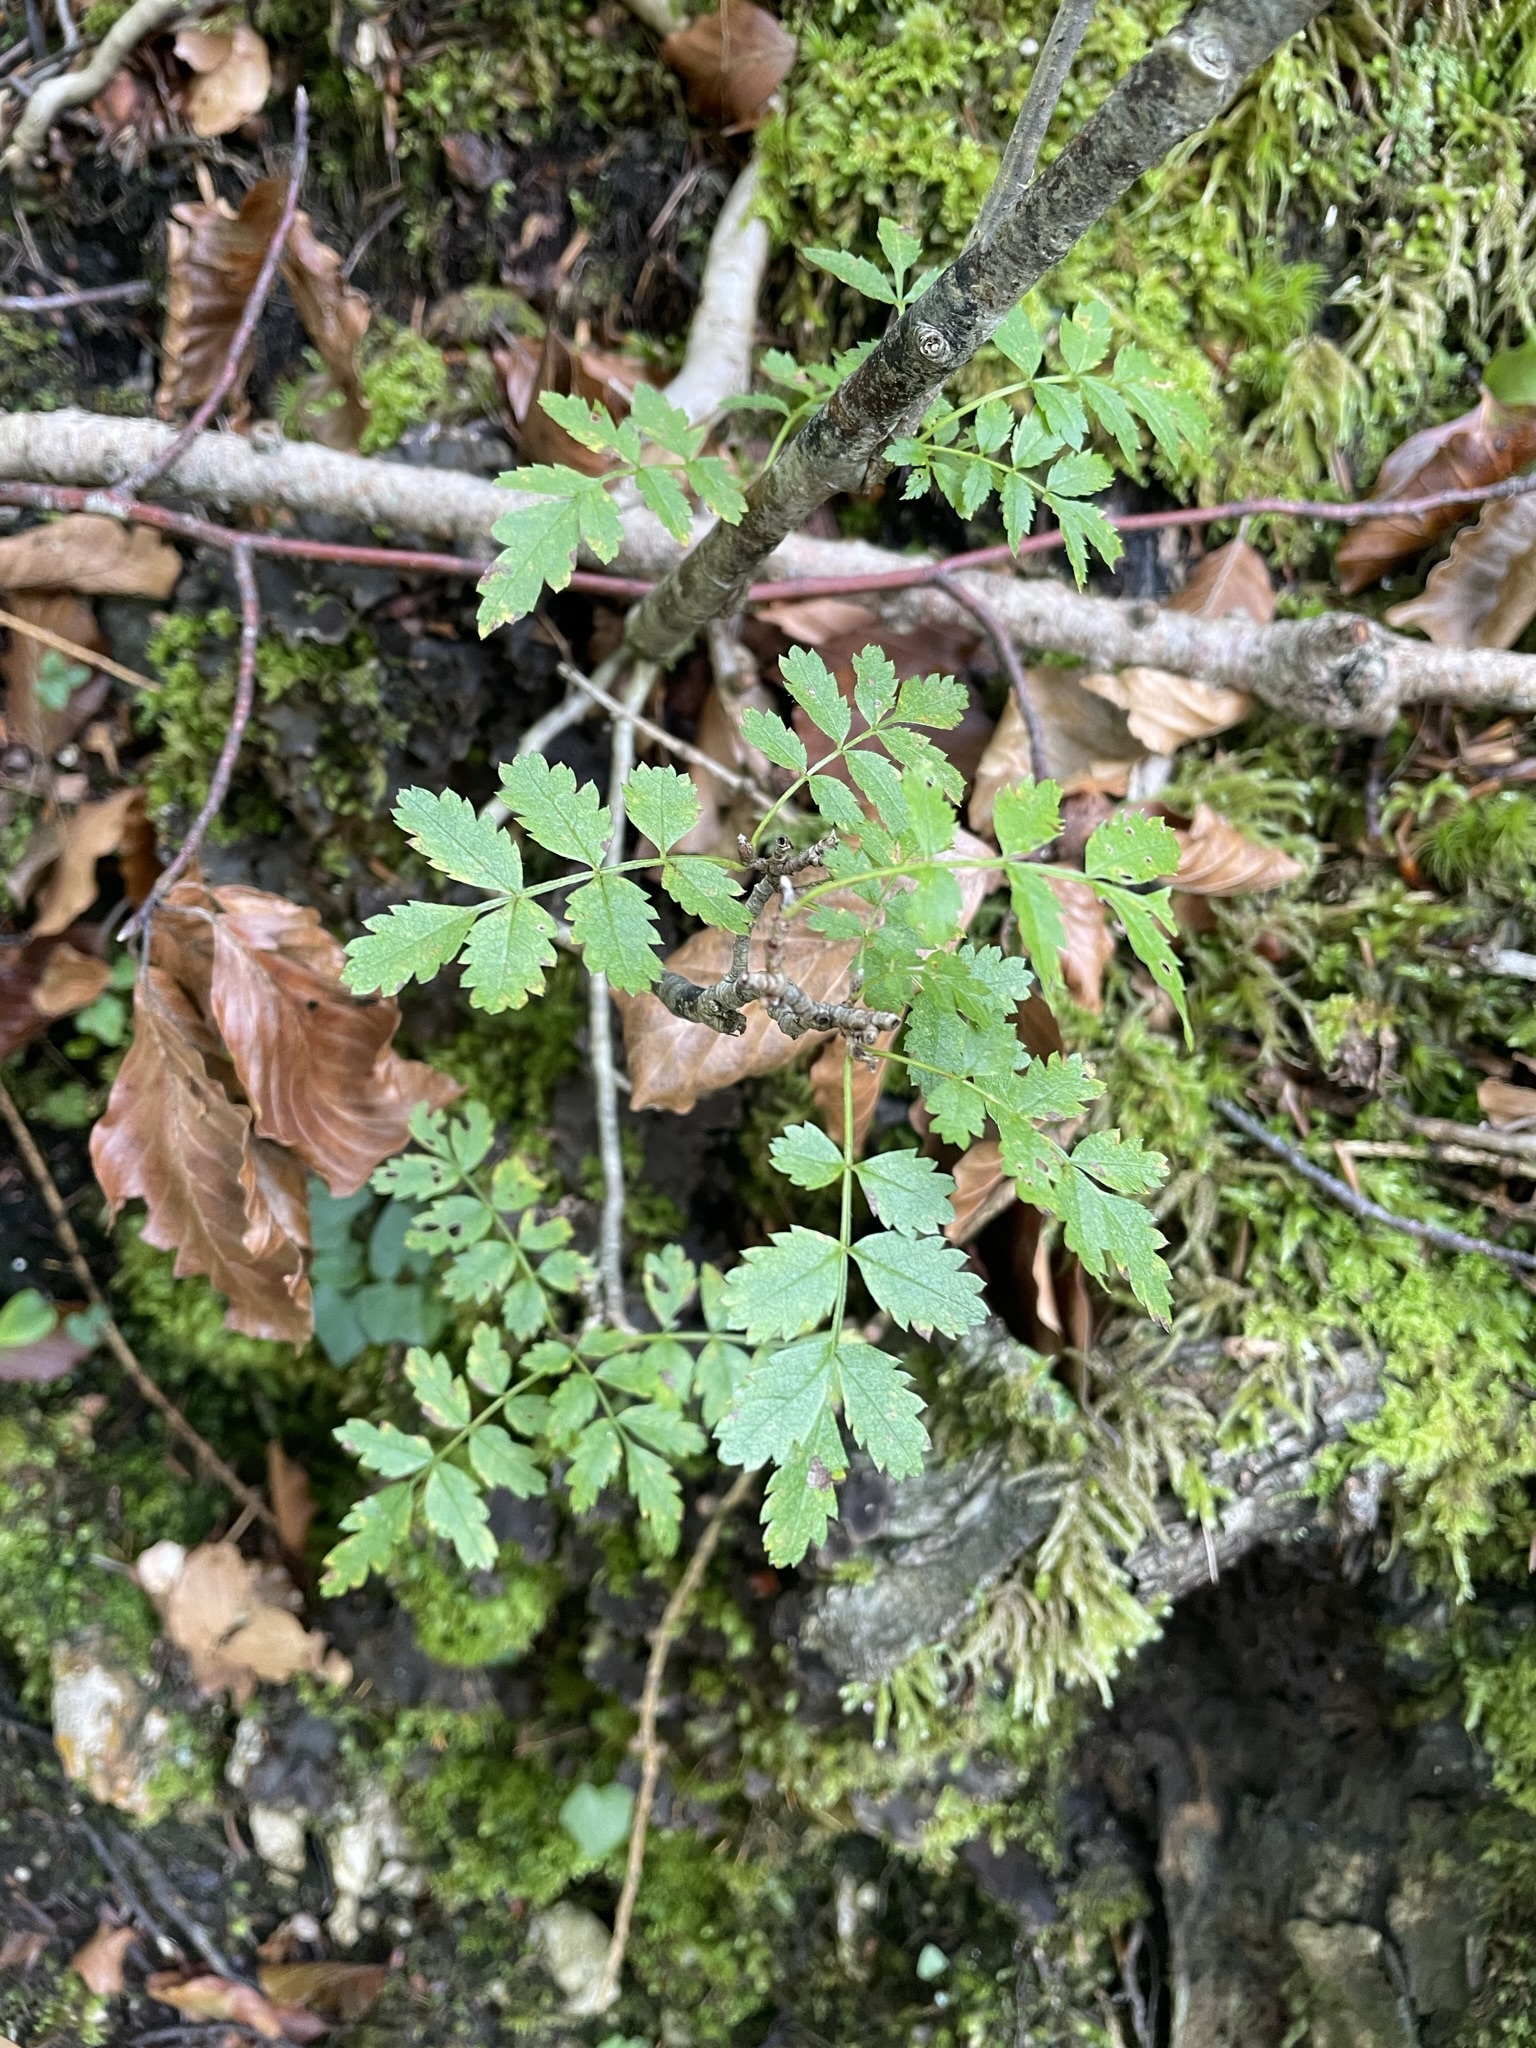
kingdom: Plantae
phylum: Tracheophyta
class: Magnoliopsida
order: Rosales
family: Rosaceae
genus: Sorbus
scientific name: Sorbus aucuparia
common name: Rowan
